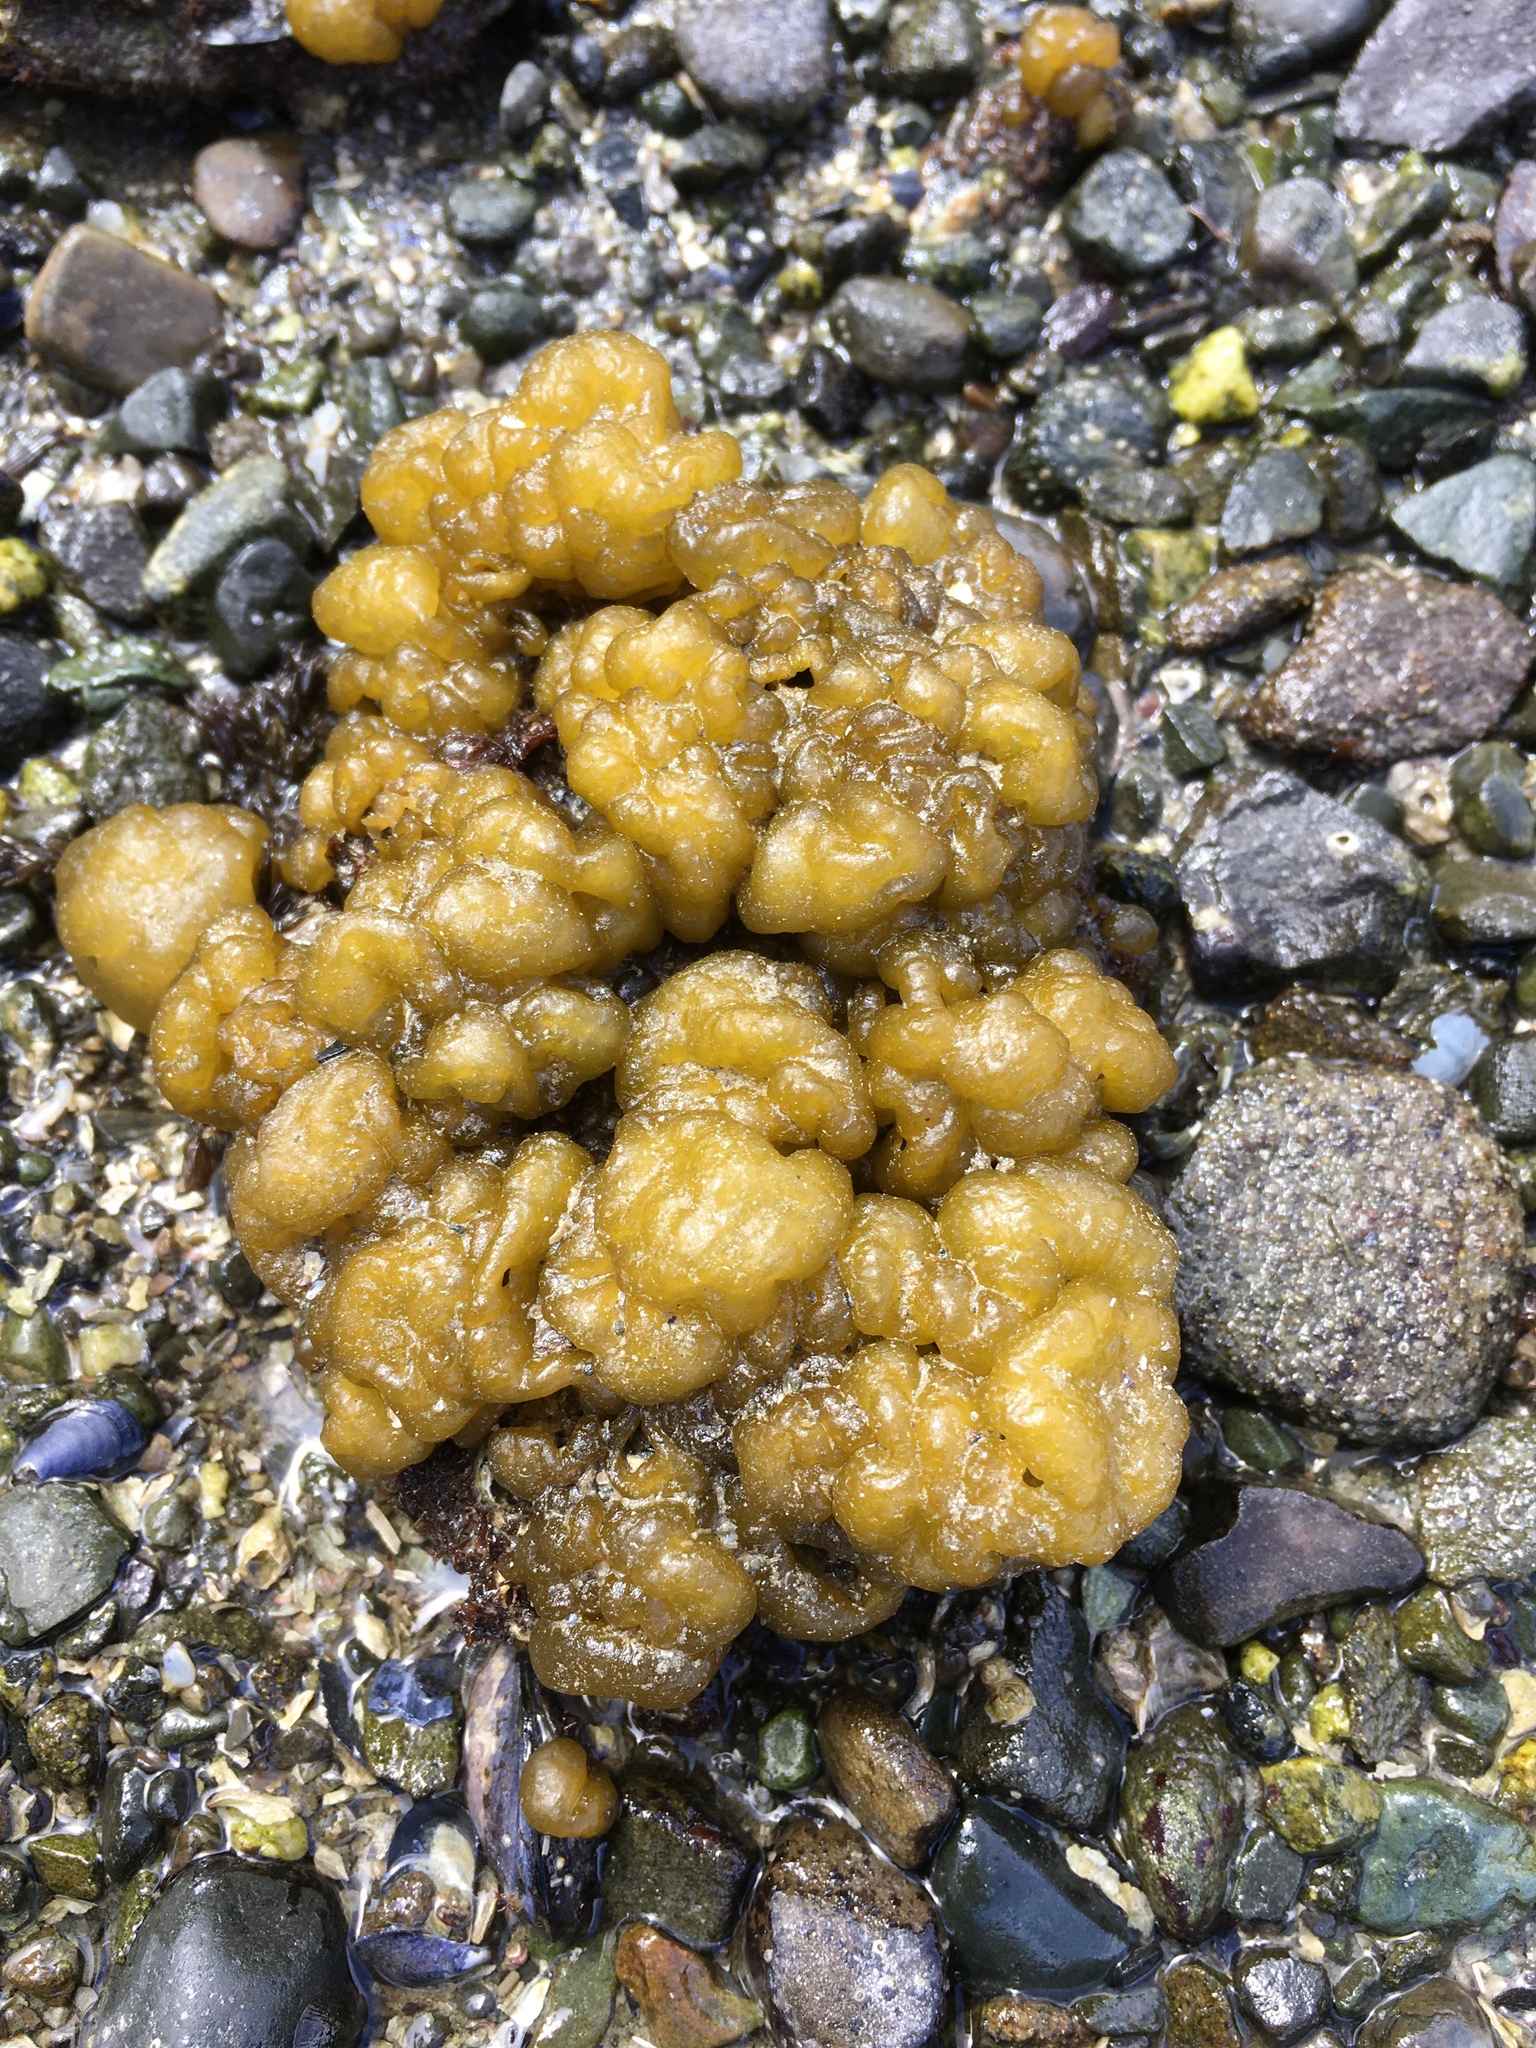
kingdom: Chromista
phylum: Ochrophyta
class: Phaeophyceae
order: Ectocarpales
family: Chordariaceae
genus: Leathesia
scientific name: Leathesia marina
